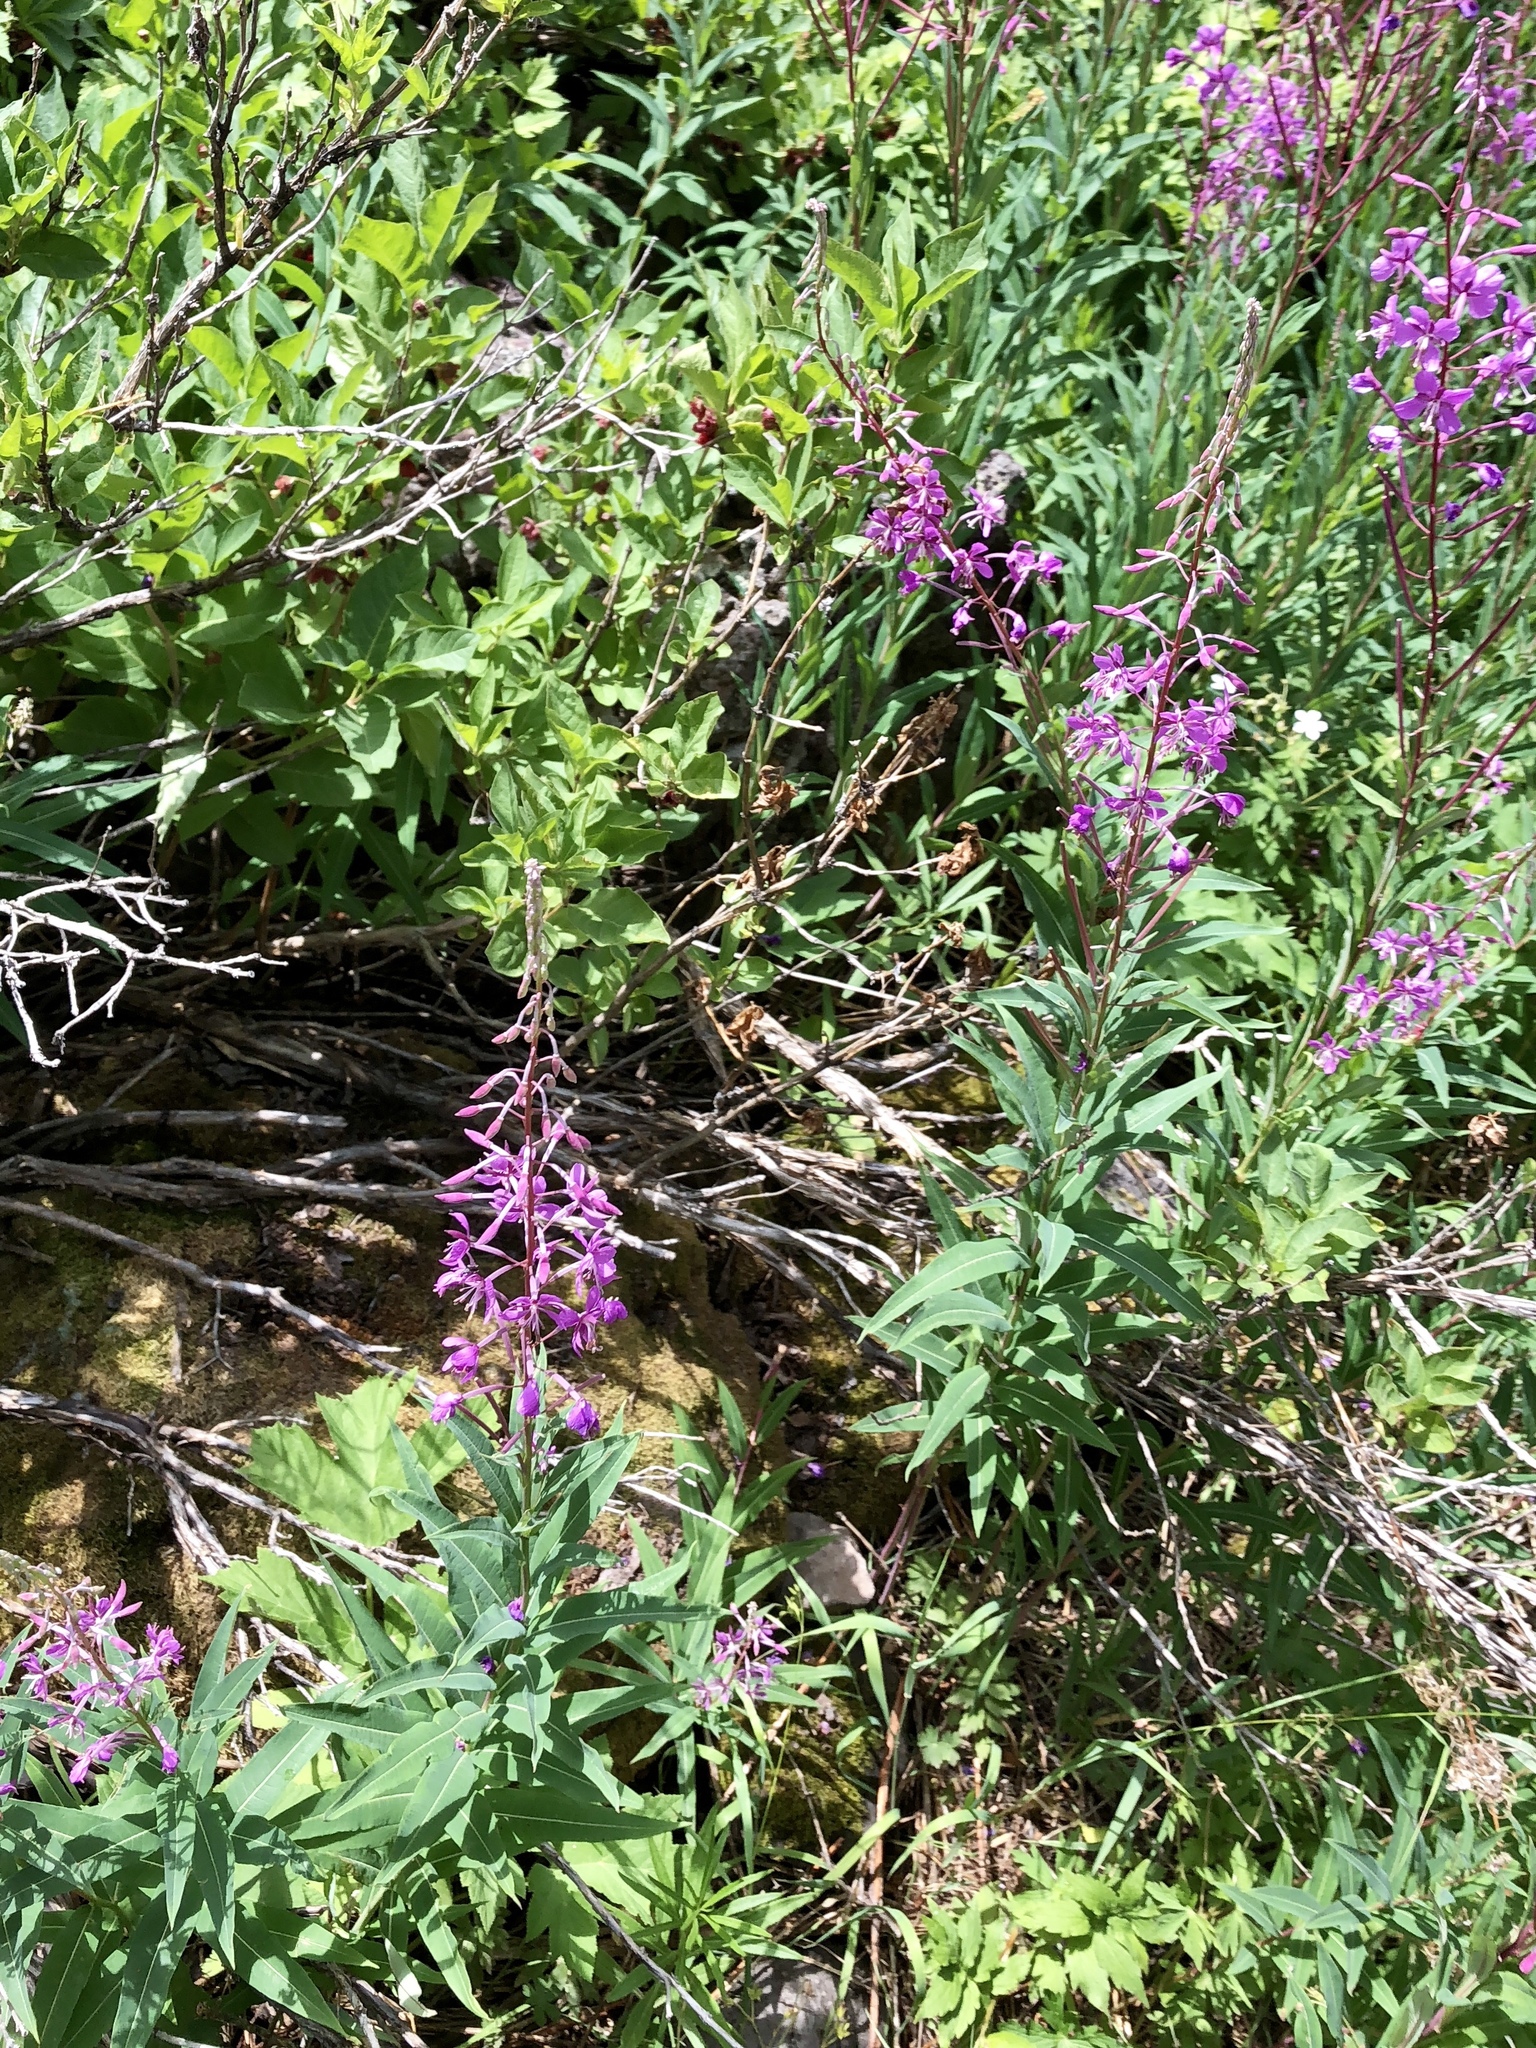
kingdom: Plantae
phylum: Tracheophyta
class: Magnoliopsida
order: Myrtales
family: Onagraceae
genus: Chamaenerion
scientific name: Chamaenerion angustifolium
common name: Fireweed
